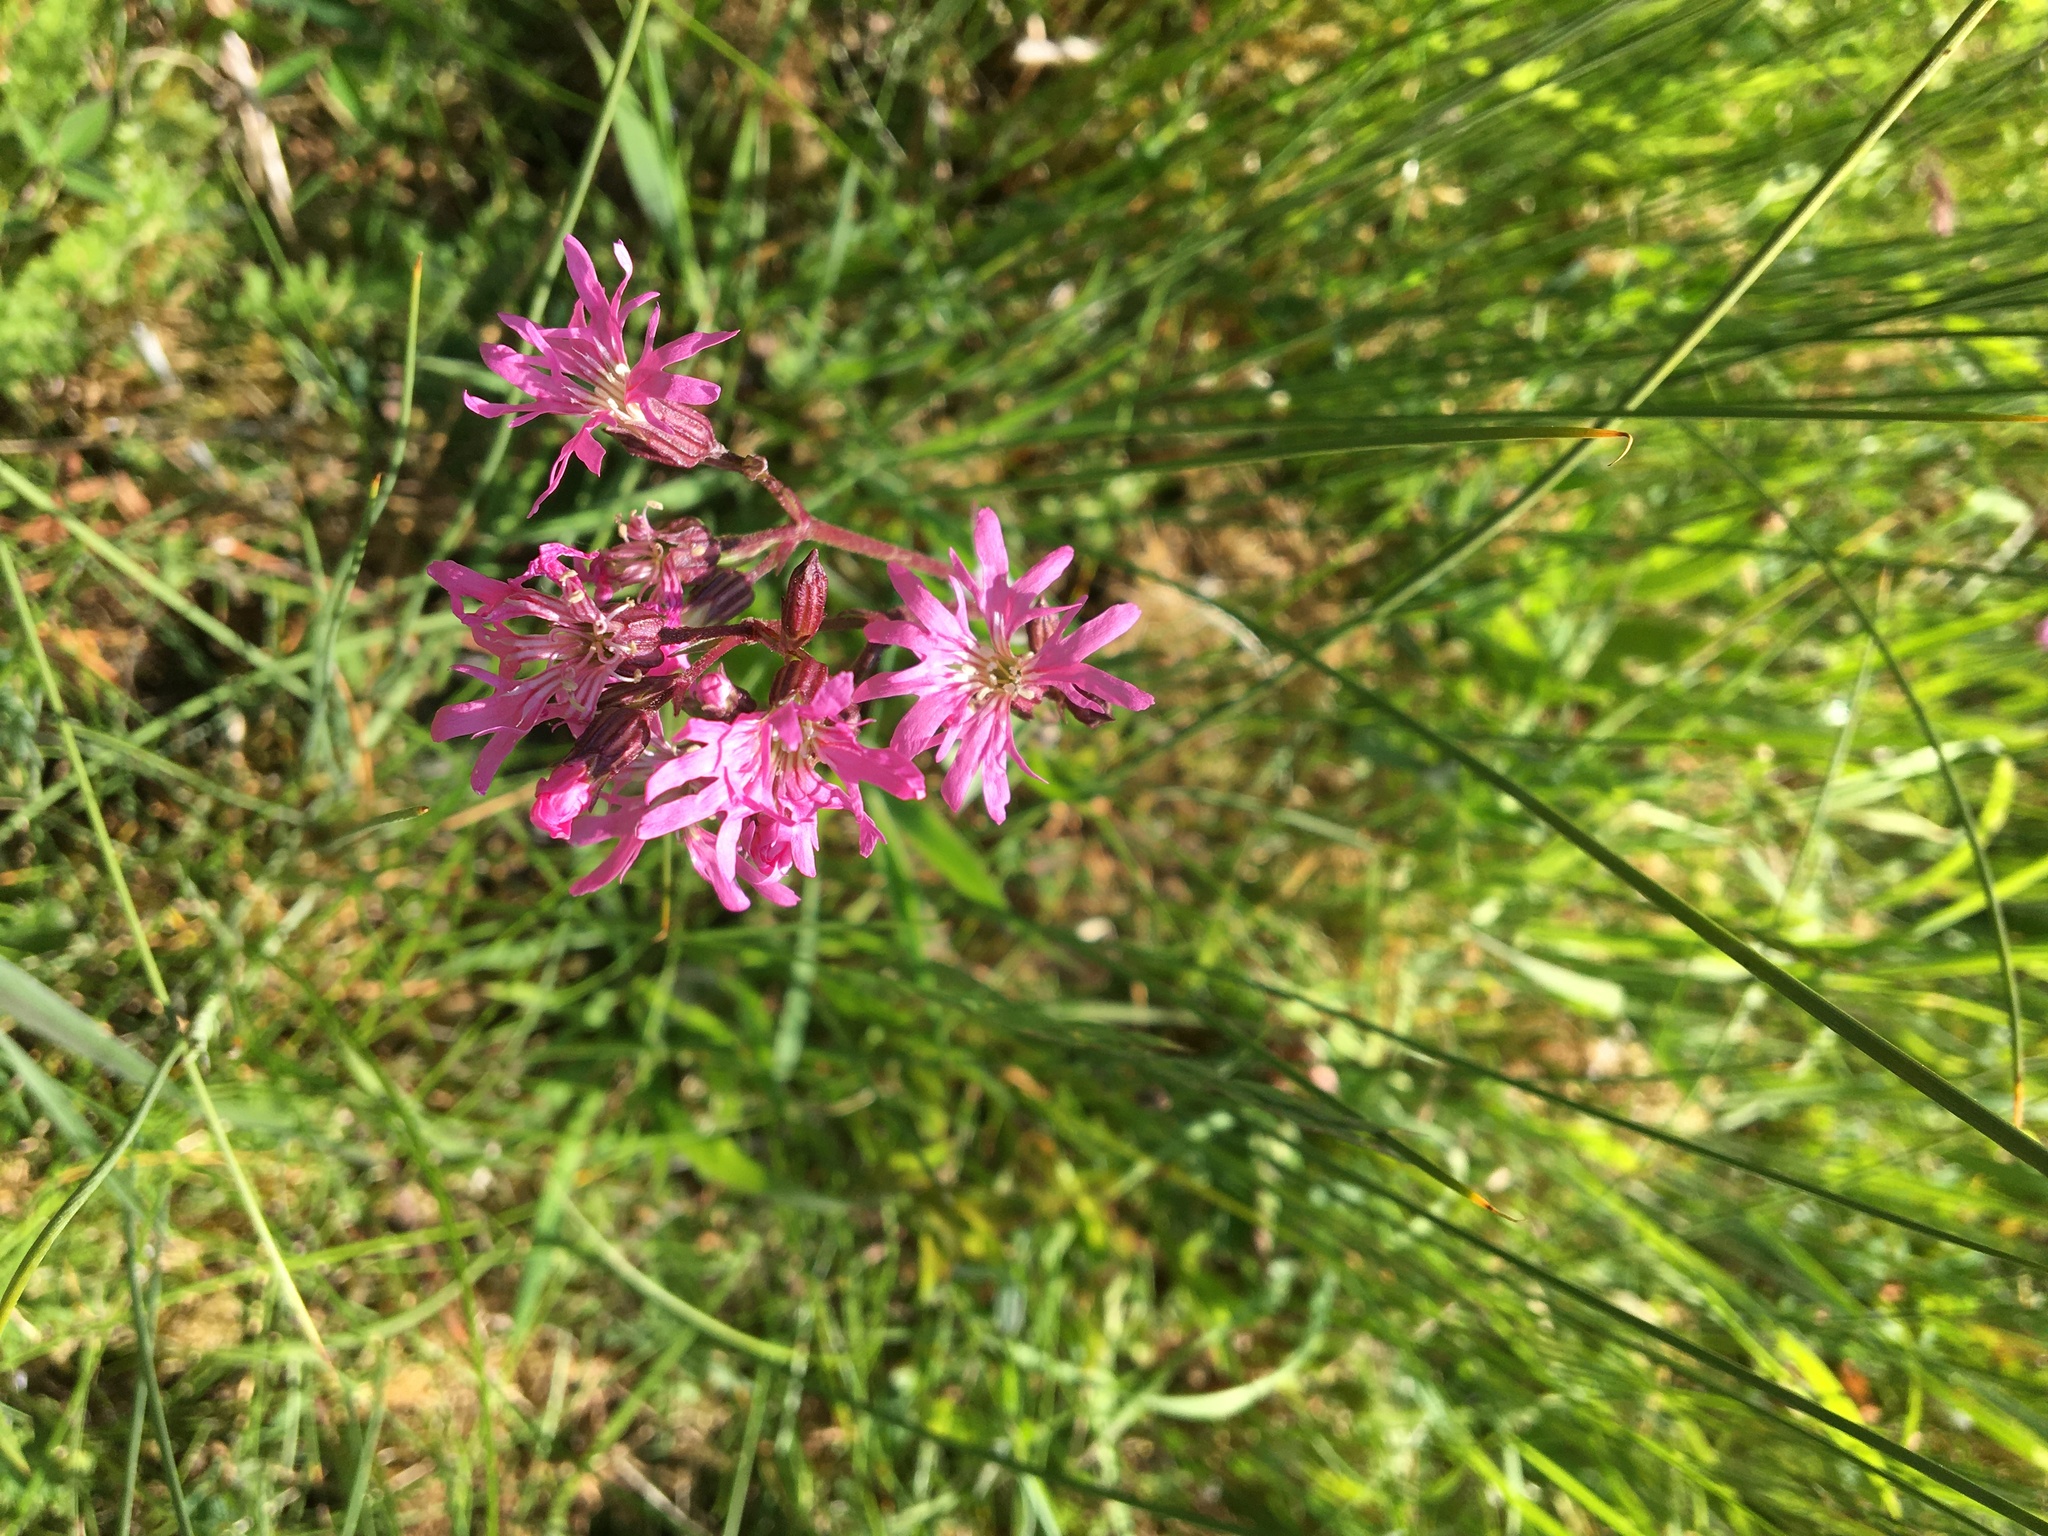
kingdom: Plantae
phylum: Tracheophyta
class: Magnoliopsida
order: Caryophyllales
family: Caryophyllaceae
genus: Silene
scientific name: Silene flos-cuculi
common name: Ragged-robin
